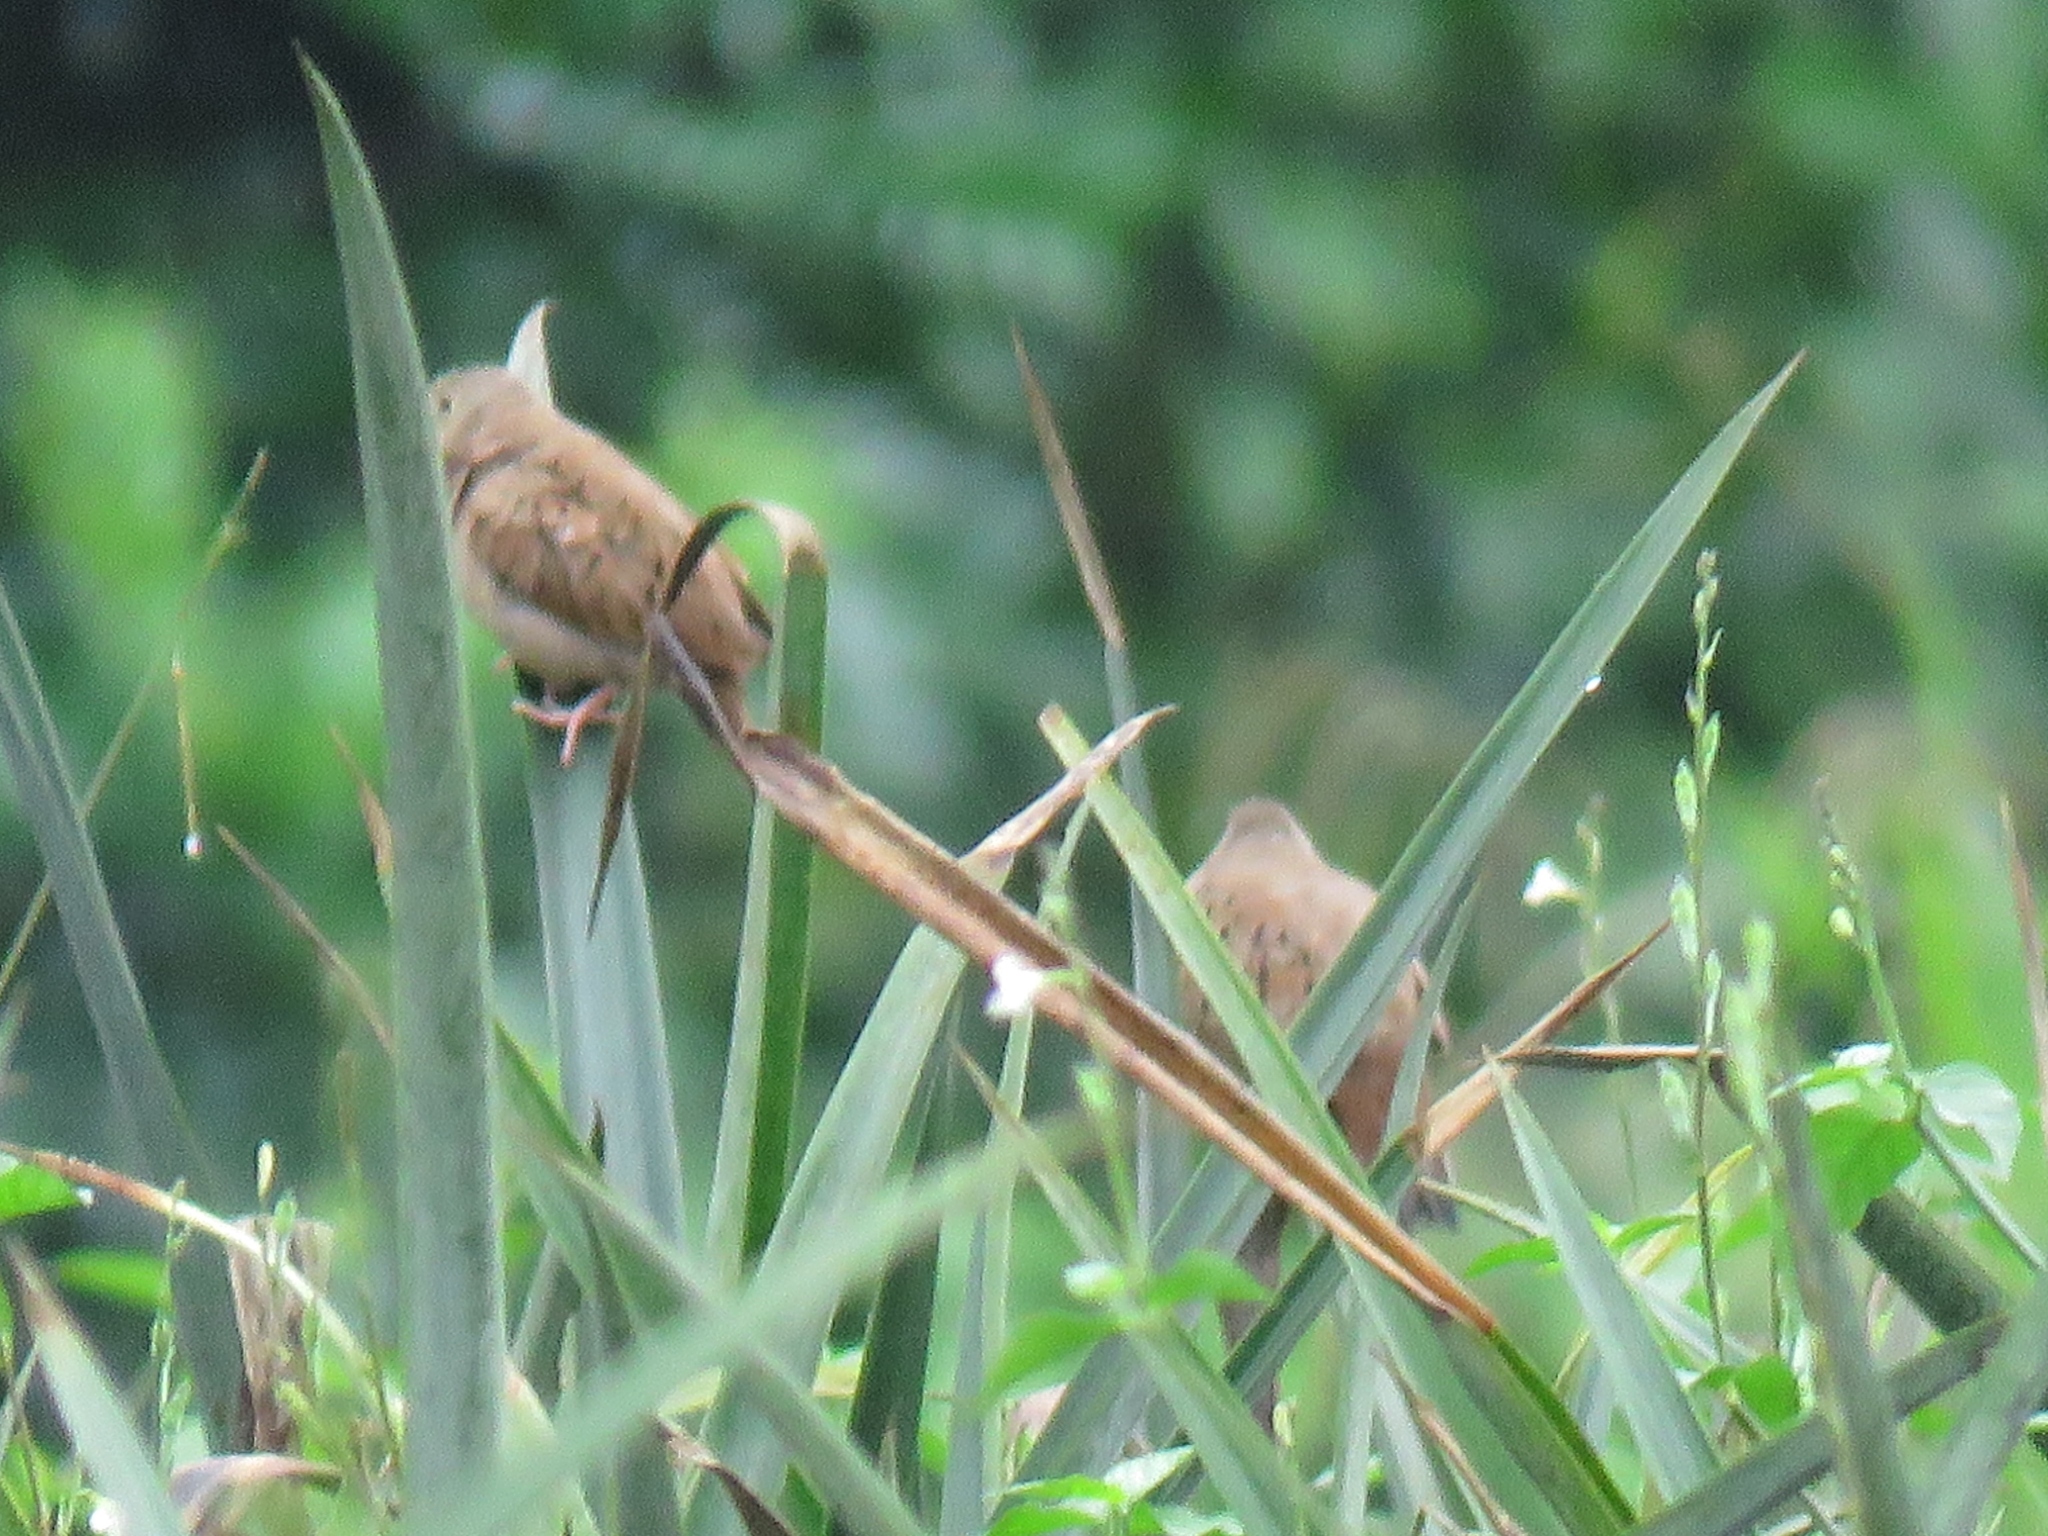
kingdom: Animalia
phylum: Chordata
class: Aves
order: Columbiformes
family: Columbidae
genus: Columbina
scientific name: Columbina talpacoti
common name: Ruddy ground dove
